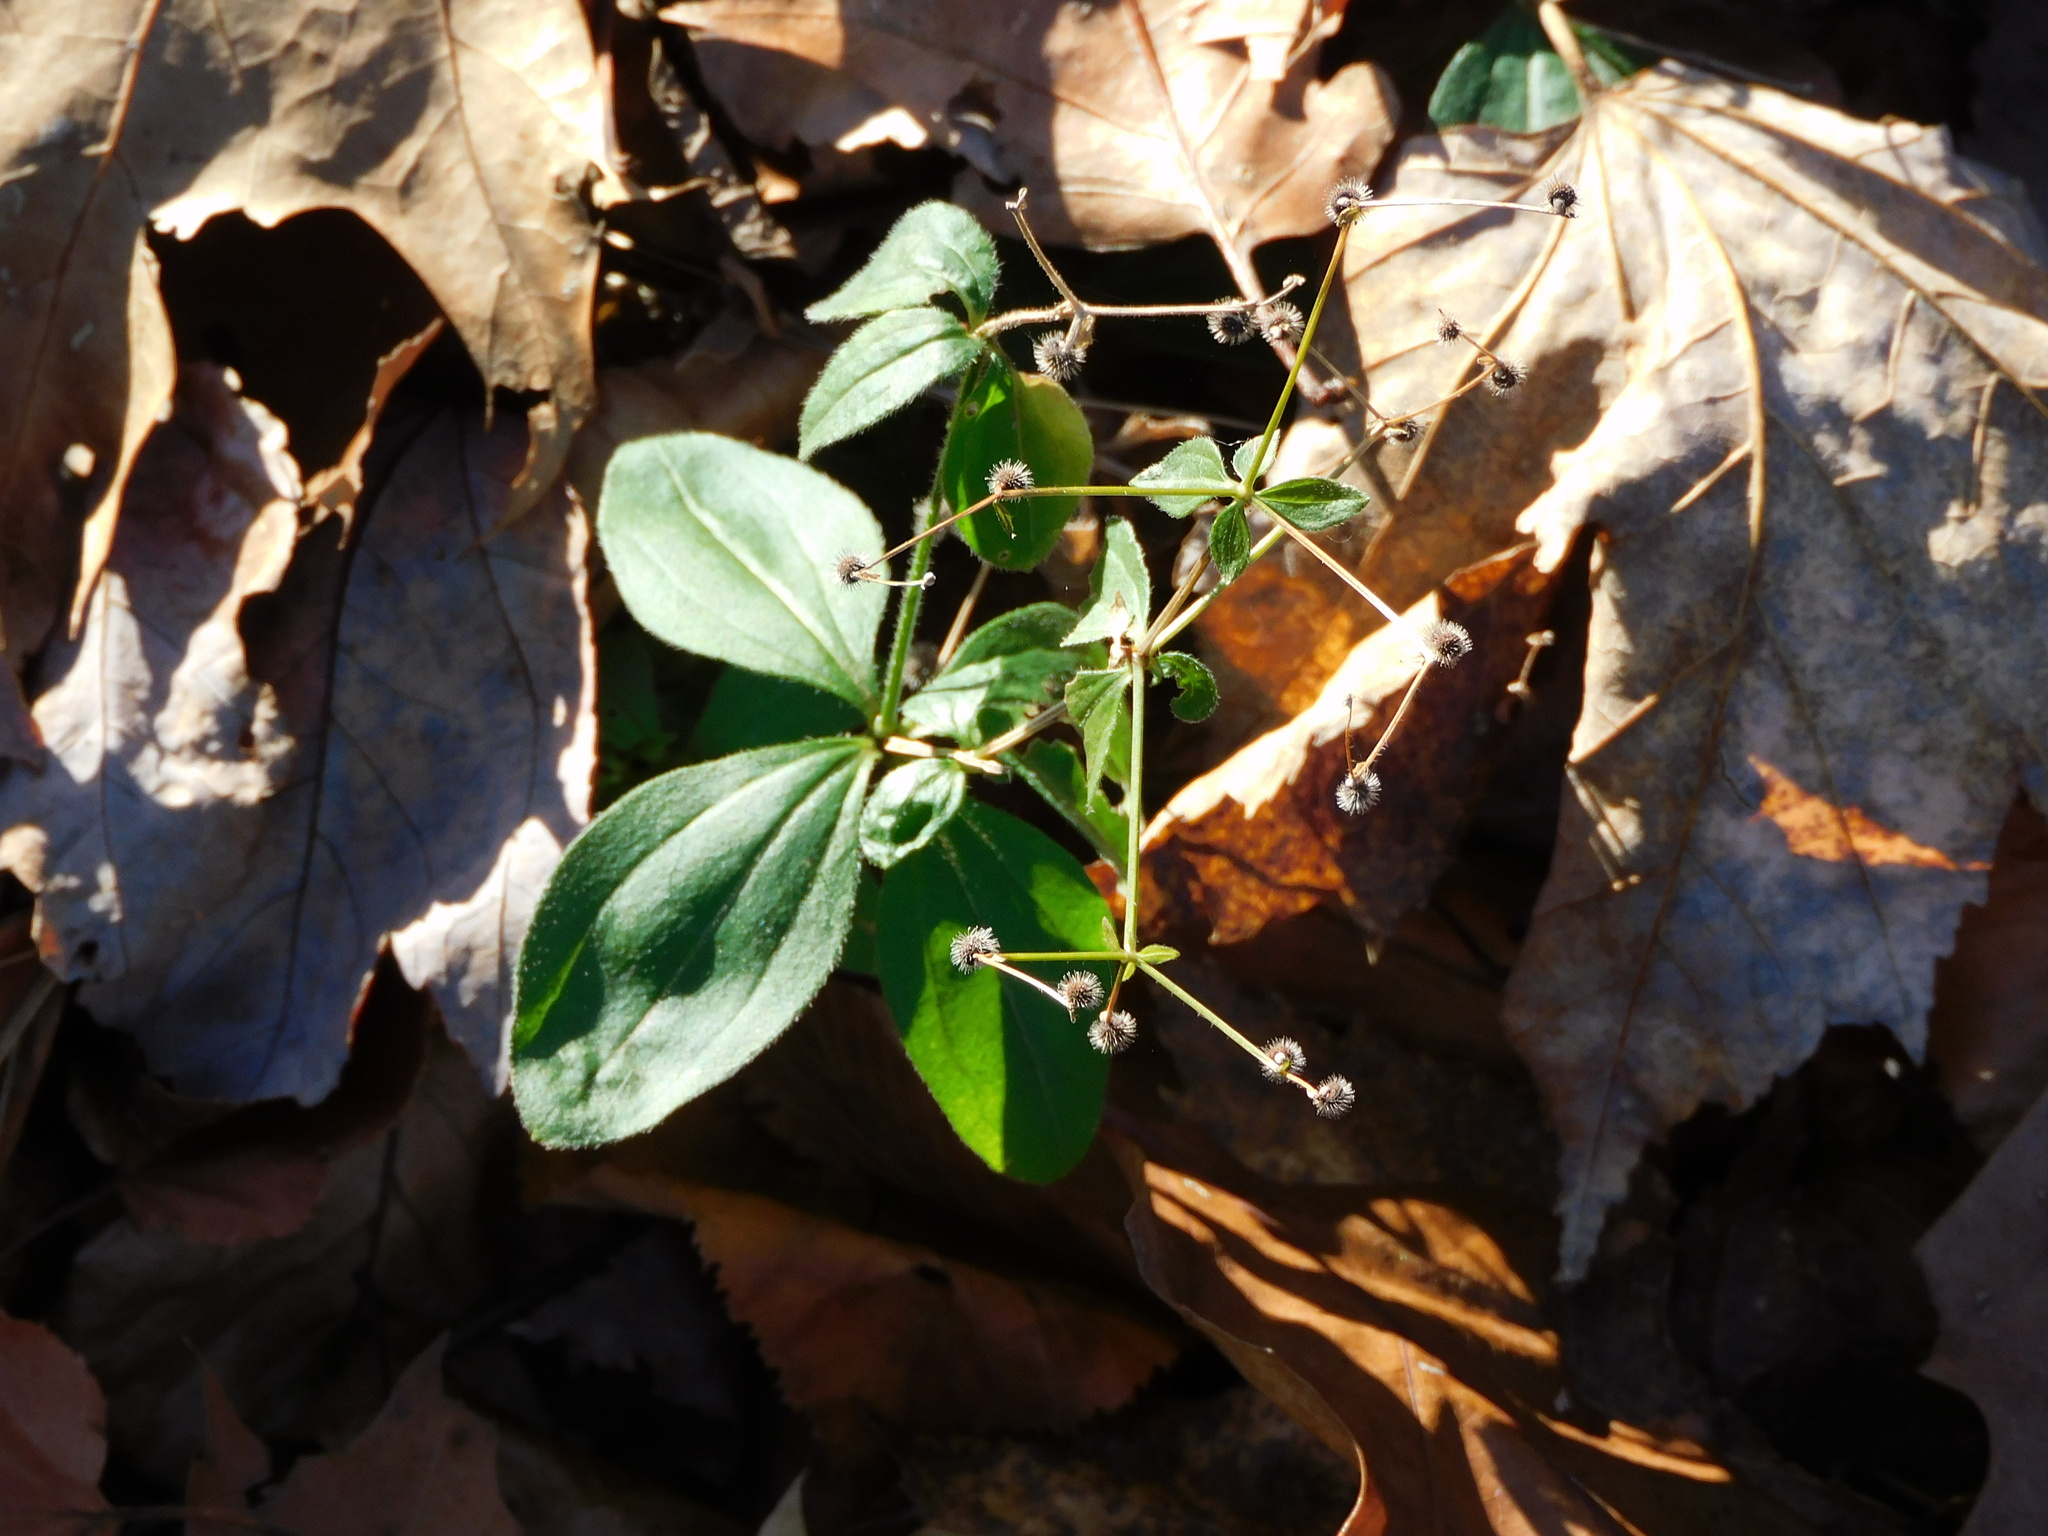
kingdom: Plantae
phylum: Tracheophyta
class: Magnoliopsida
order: Gentianales
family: Rubiaceae
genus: Galium
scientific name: Galium circaezans
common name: Forest bedstraw
